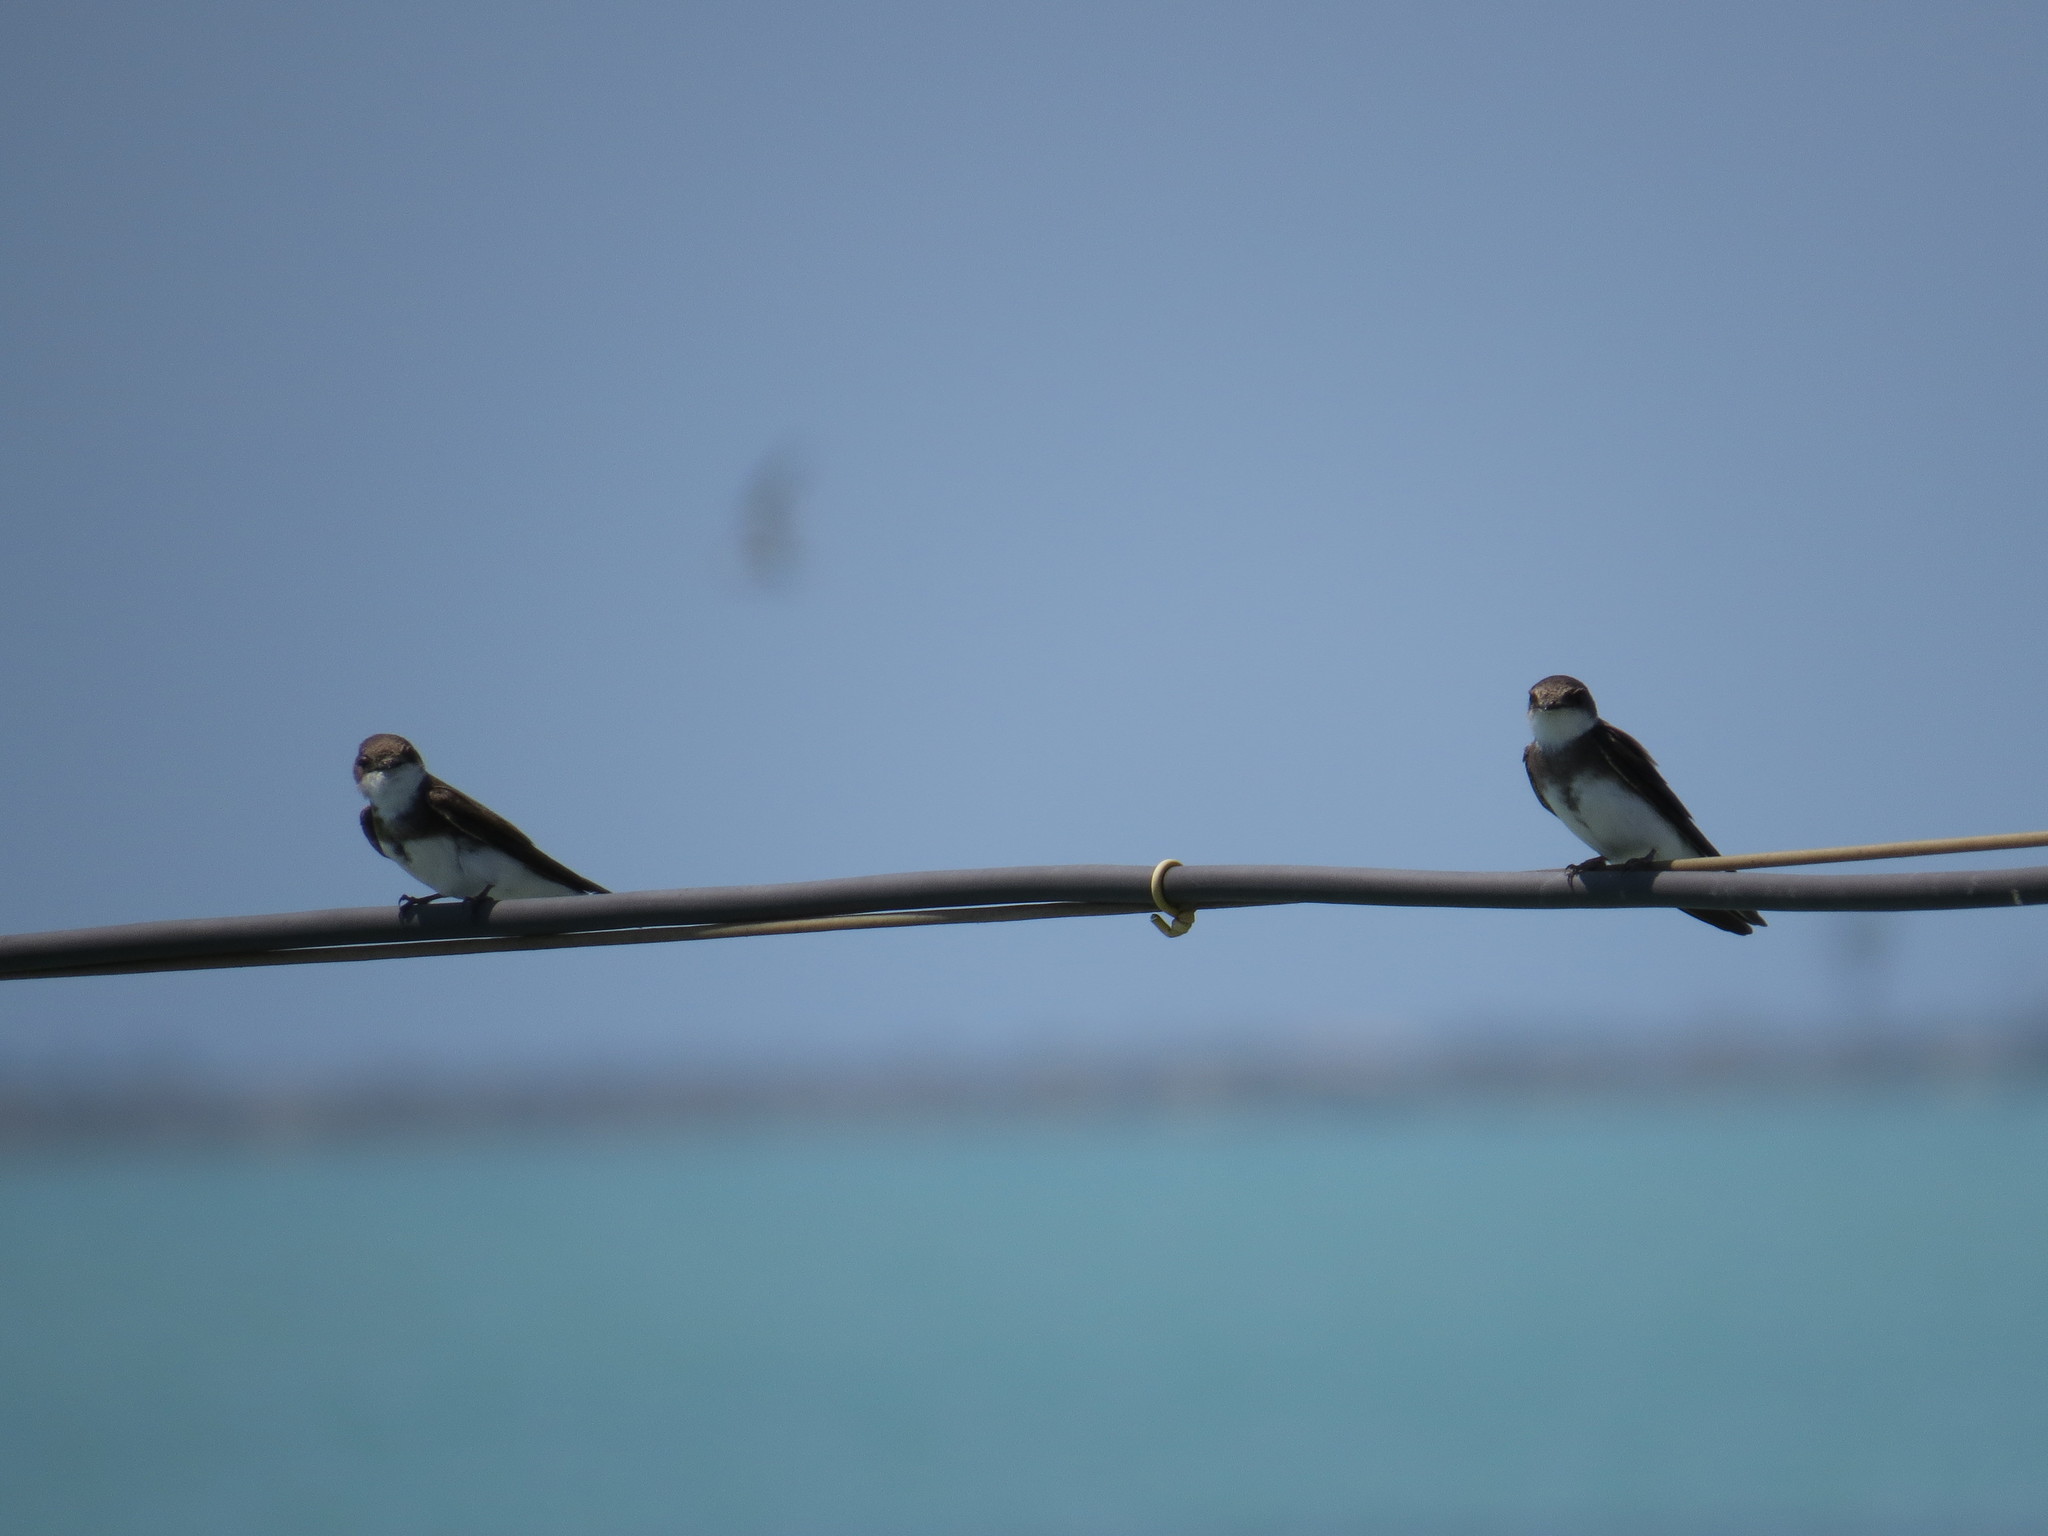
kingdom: Animalia
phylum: Chordata
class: Aves
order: Passeriformes
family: Hirundinidae
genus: Riparia
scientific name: Riparia riparia
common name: Sand martin
